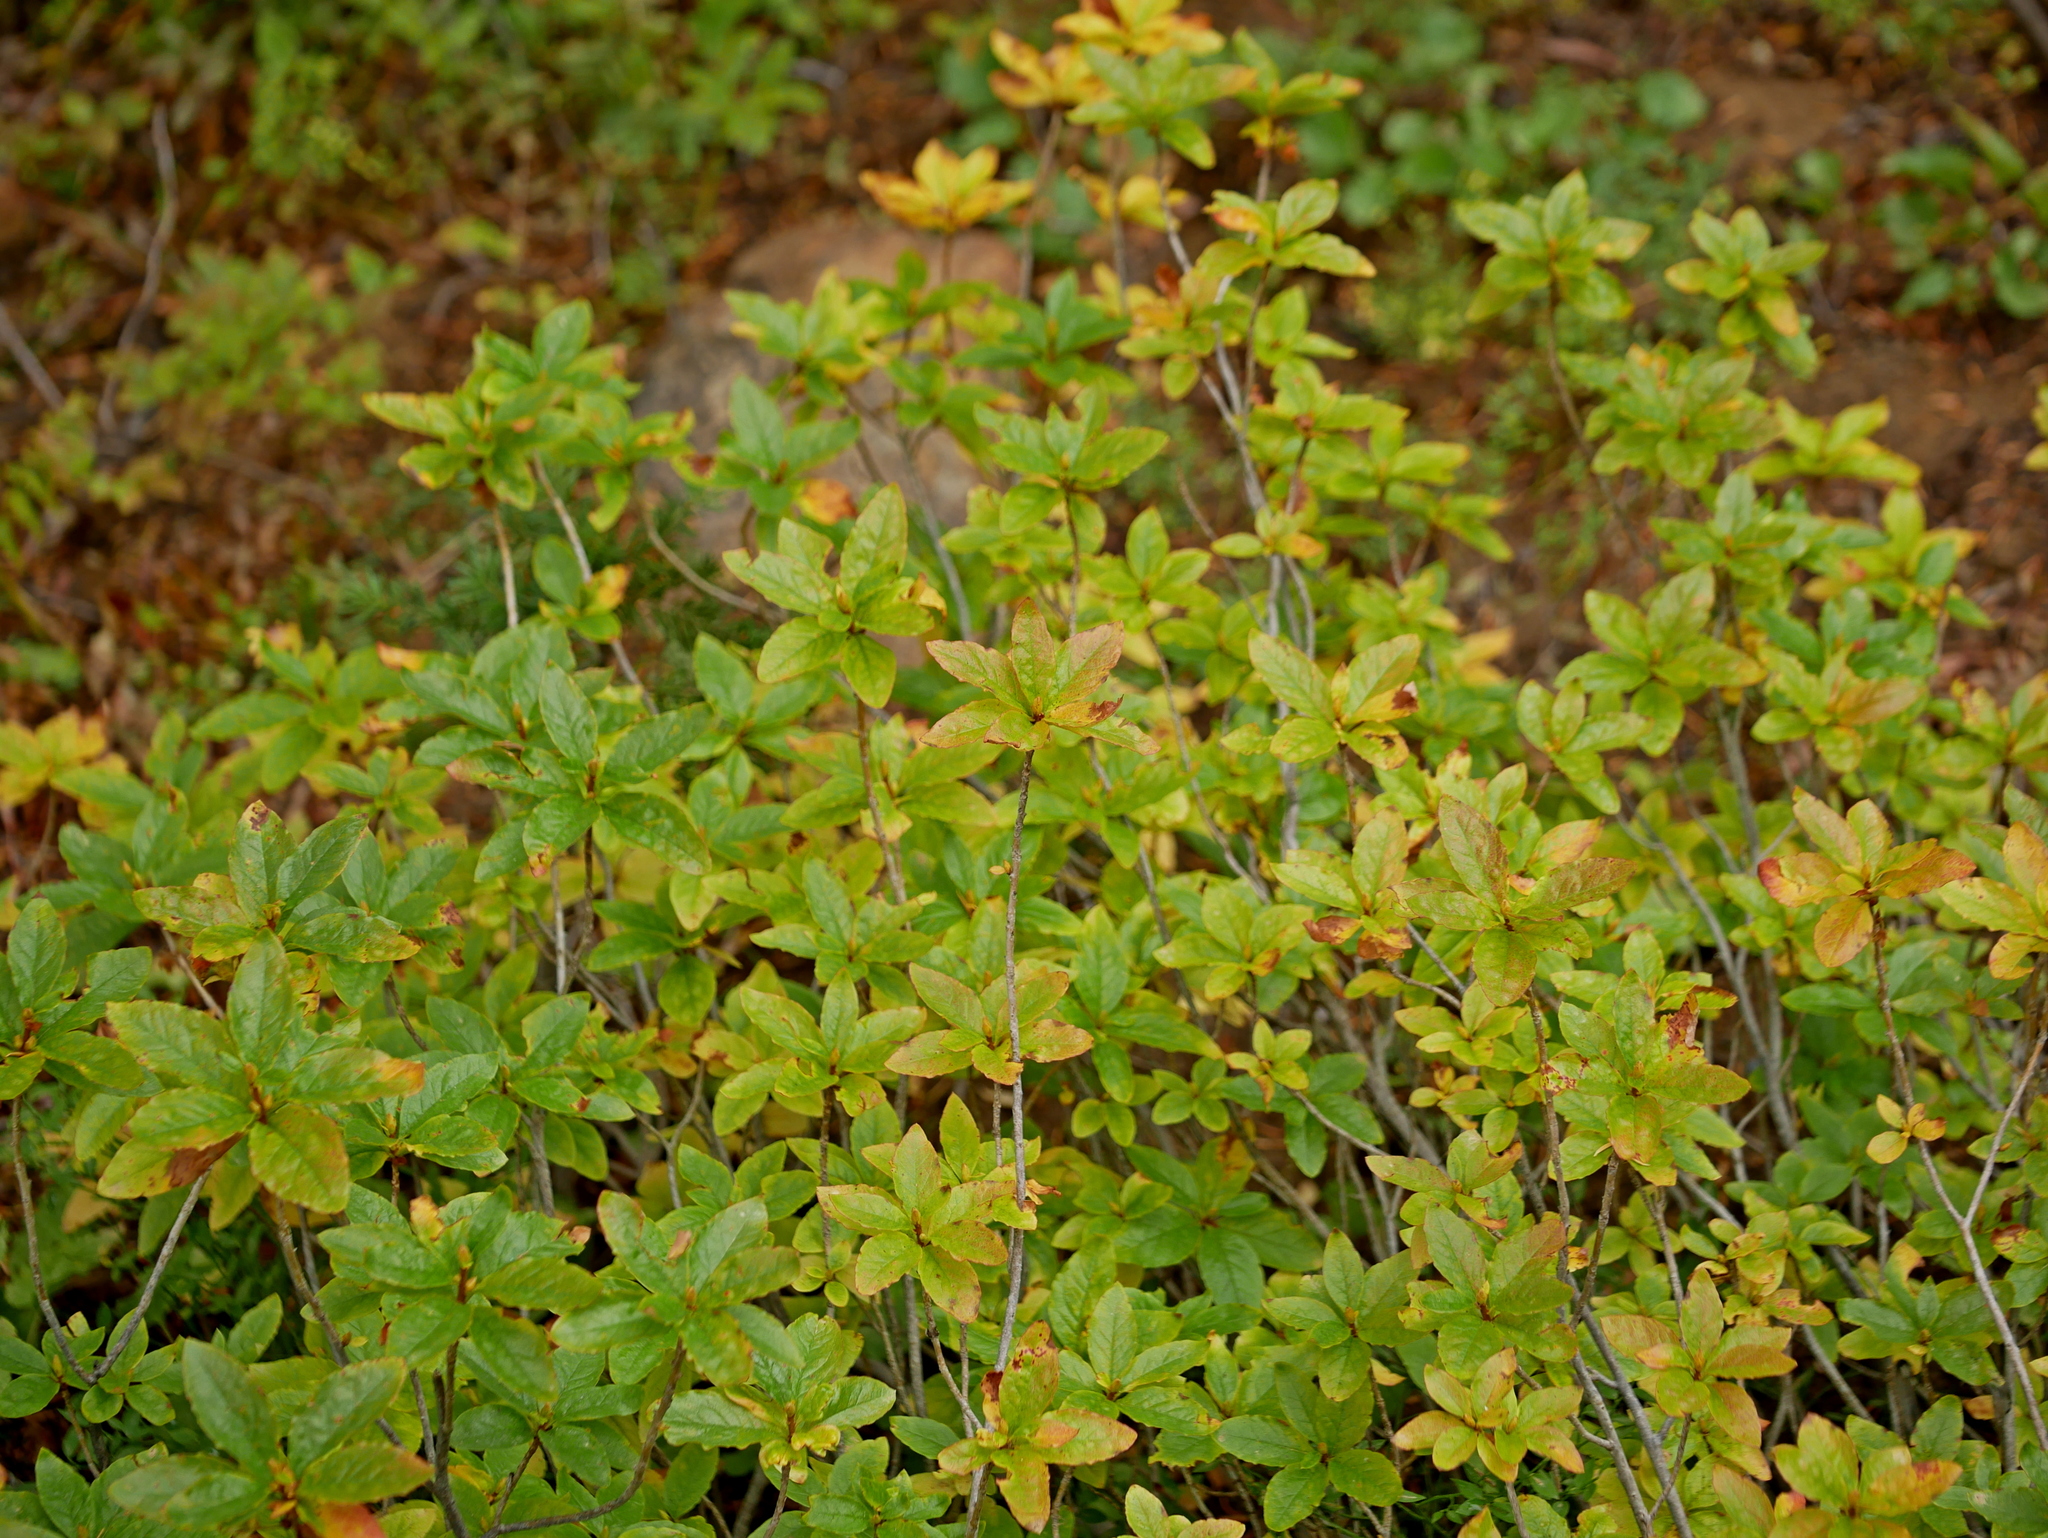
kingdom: Plantae
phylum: Tracheophyta
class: Magnoliopsida
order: Ericales
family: Ericaceae
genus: Rhododendron
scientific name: Rhododendron albiflorum
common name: White rhododendron
